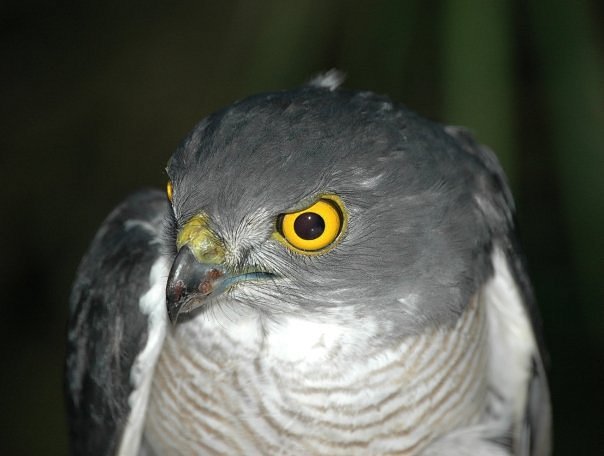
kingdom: Animalia
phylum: Chordata
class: Aves
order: Accipitriformes
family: Accipitridae
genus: Accipiter
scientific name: Accipiter francesiae
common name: Frances's sparrowhawk
